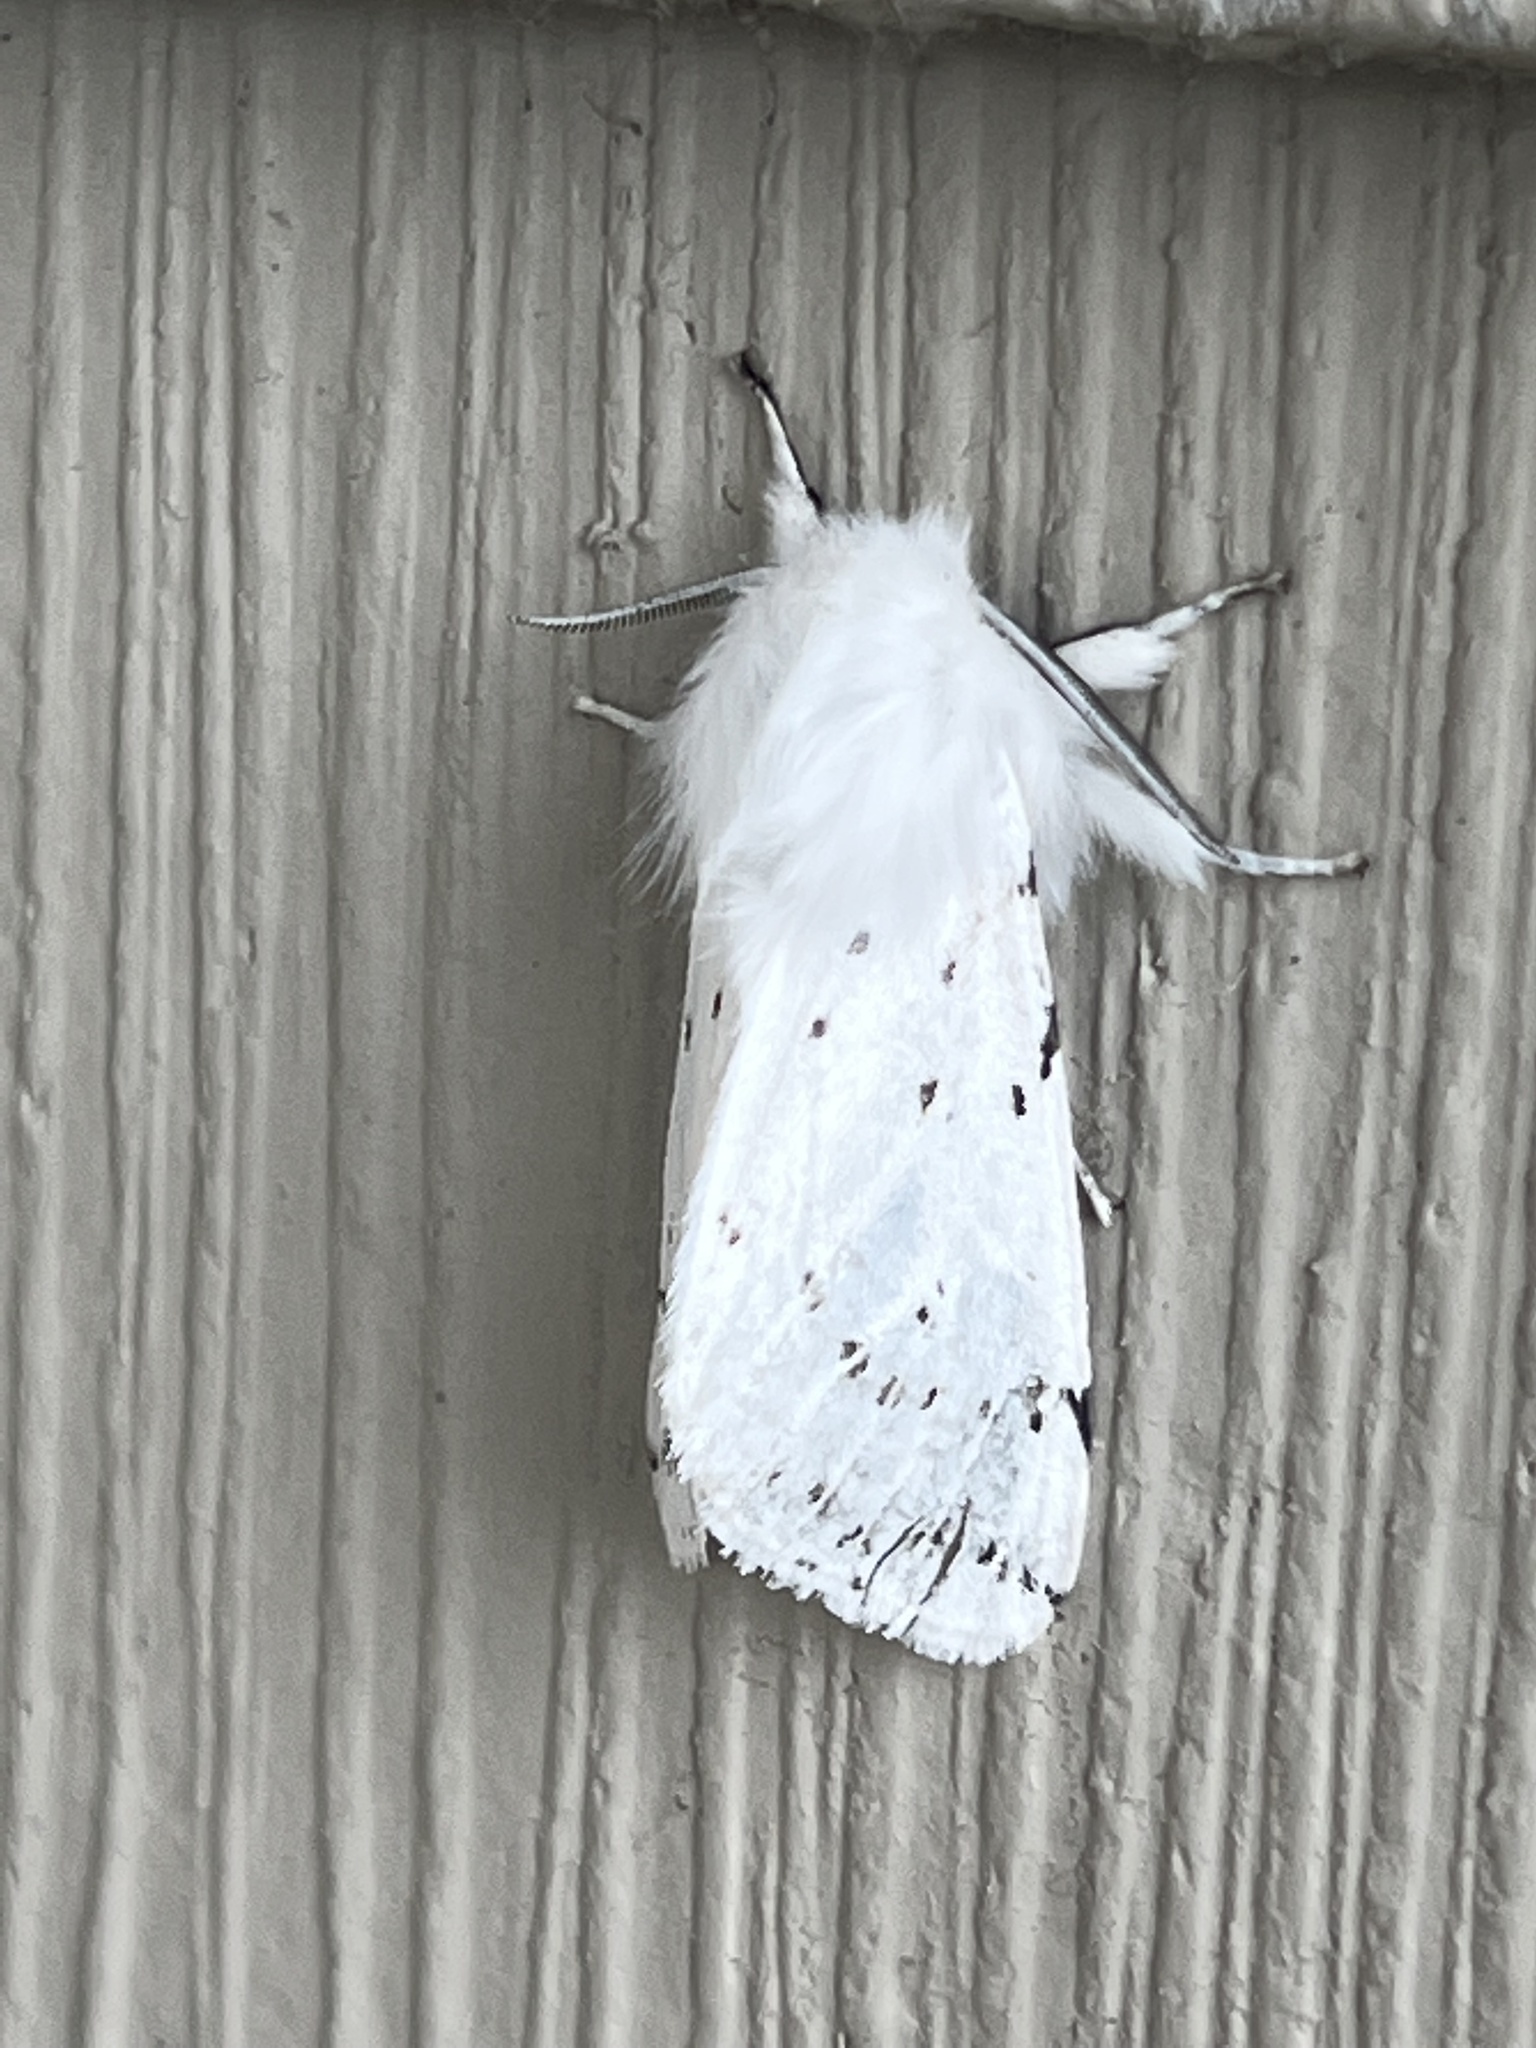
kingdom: Animalia
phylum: Arthropoda
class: Insecta
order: Lepidoptera
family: Erebidae
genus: Spilosoma
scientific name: Spilosoma vestalis
